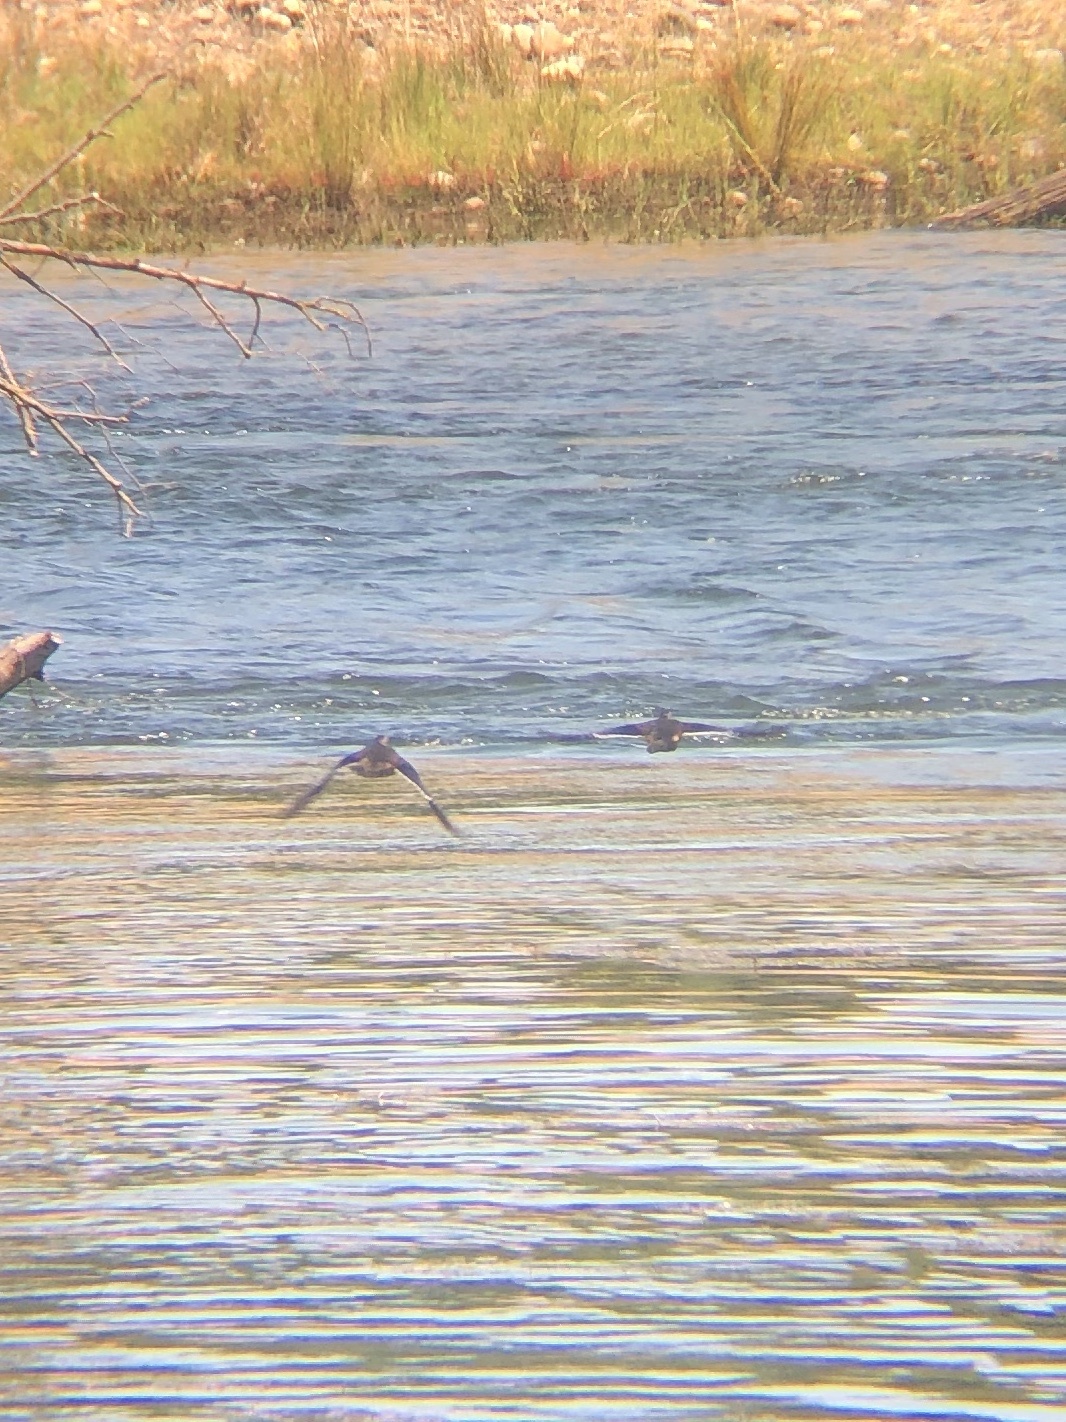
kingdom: Animalia
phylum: Chordata
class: Aves
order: Anseriformes
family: Anatidae
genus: Aix
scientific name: Aix sponsa
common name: Wood duck
